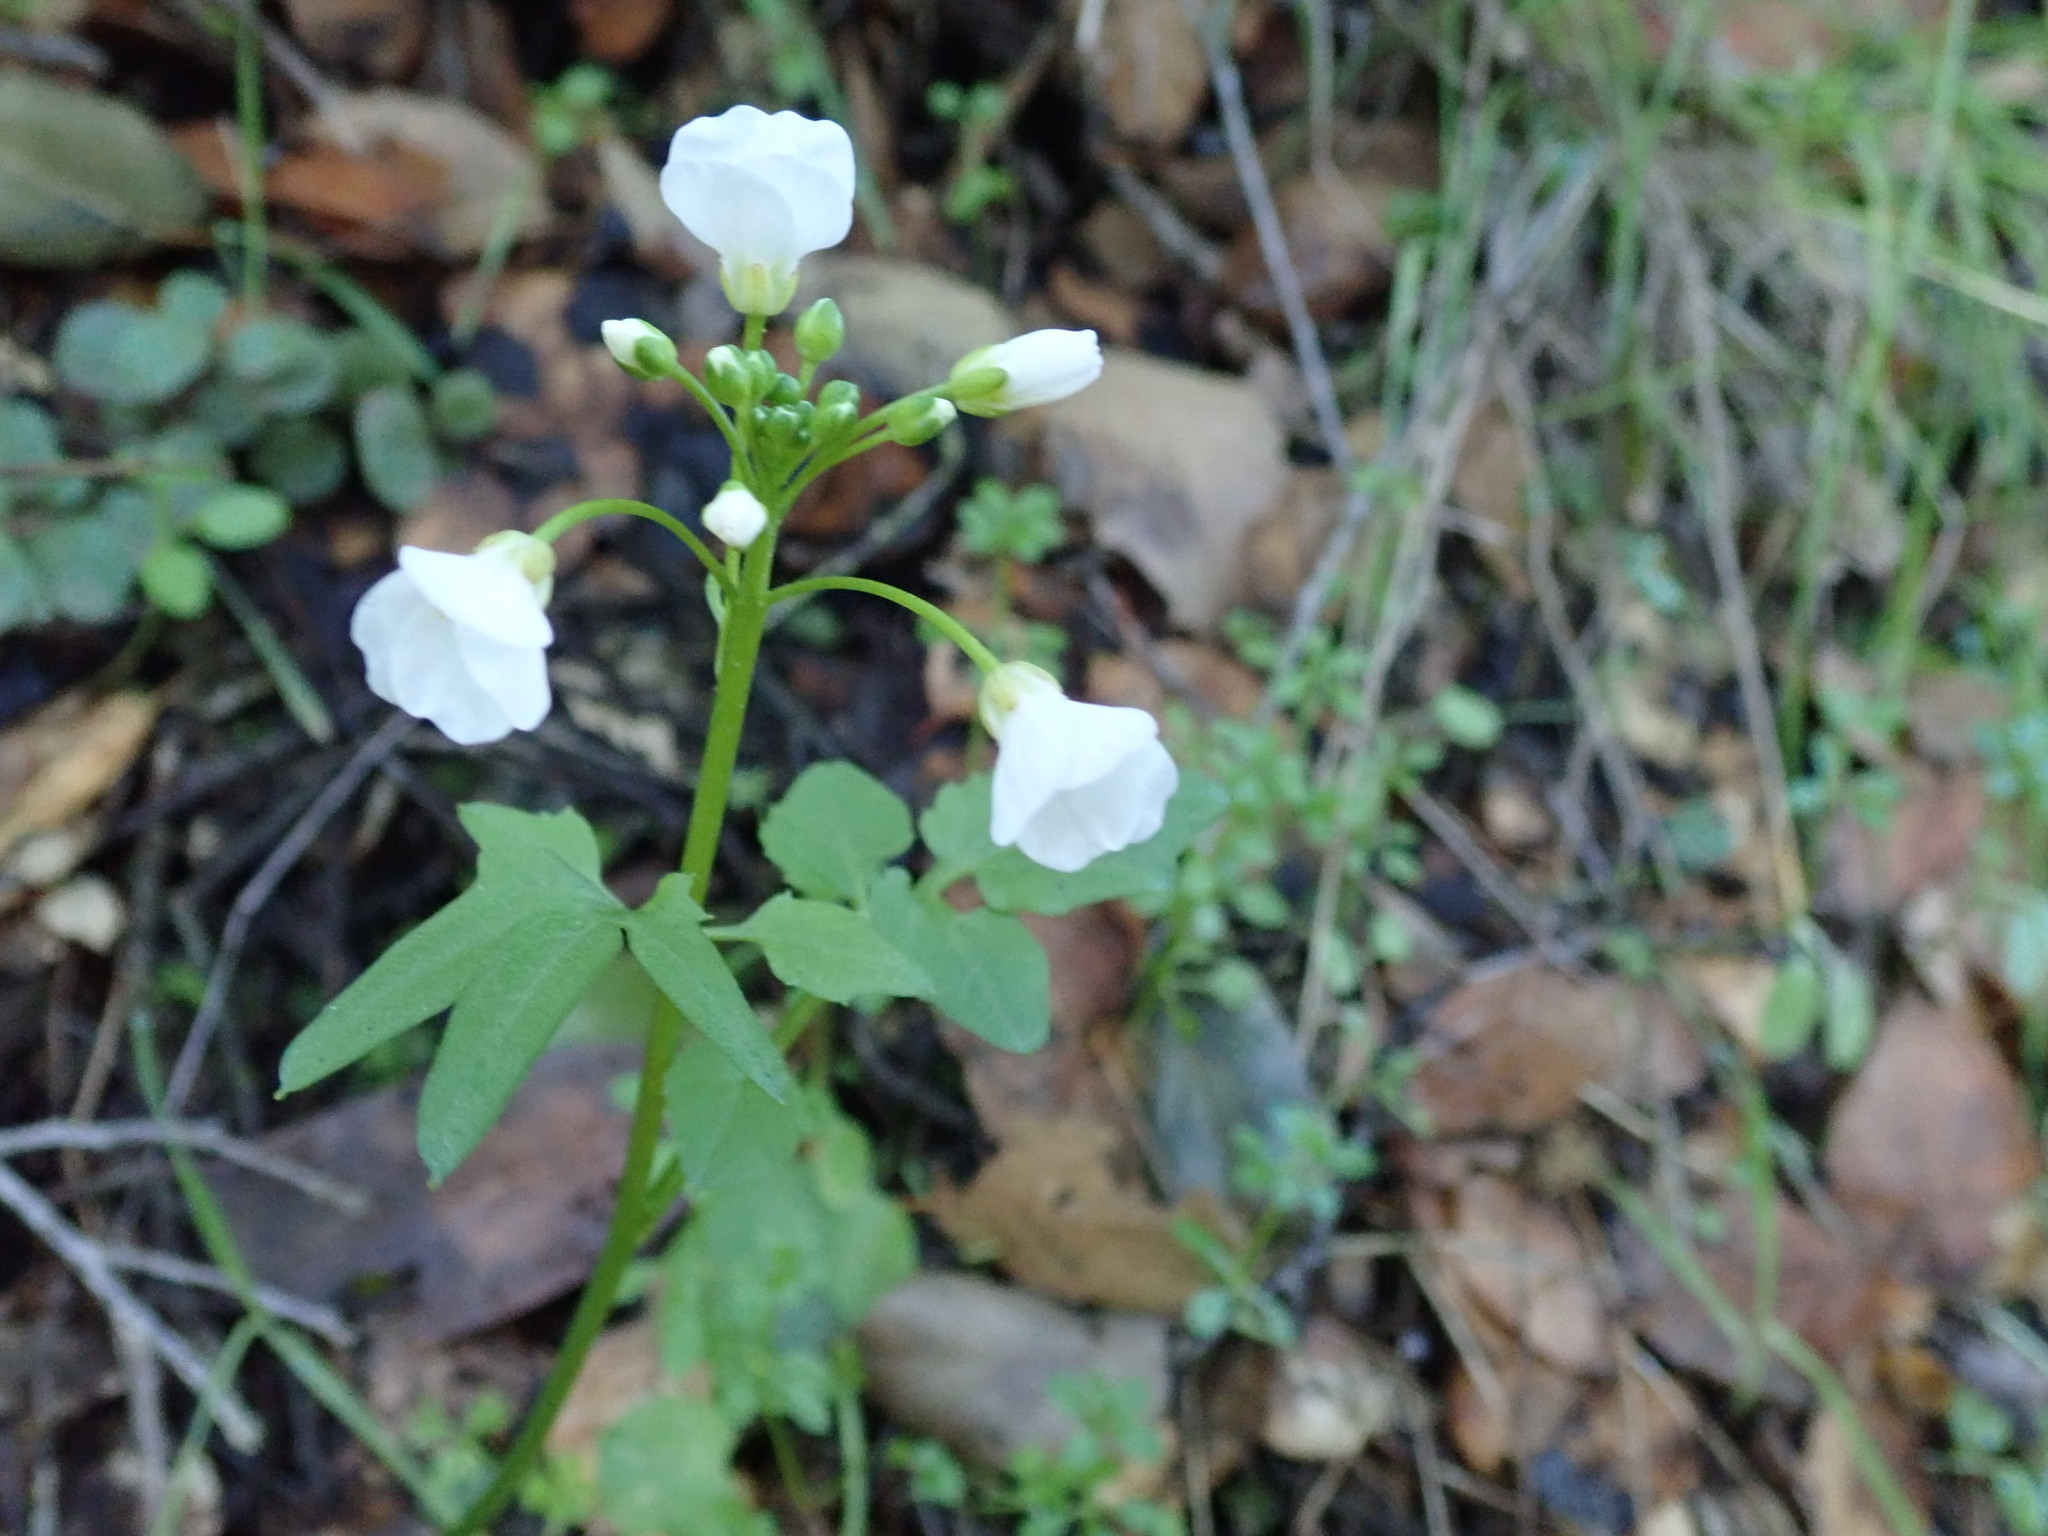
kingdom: Plantae
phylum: Tracheophyta
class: Magnoliopsida
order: Brassicales
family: Brassicaceae
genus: Cardamine
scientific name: Cardamine californica
